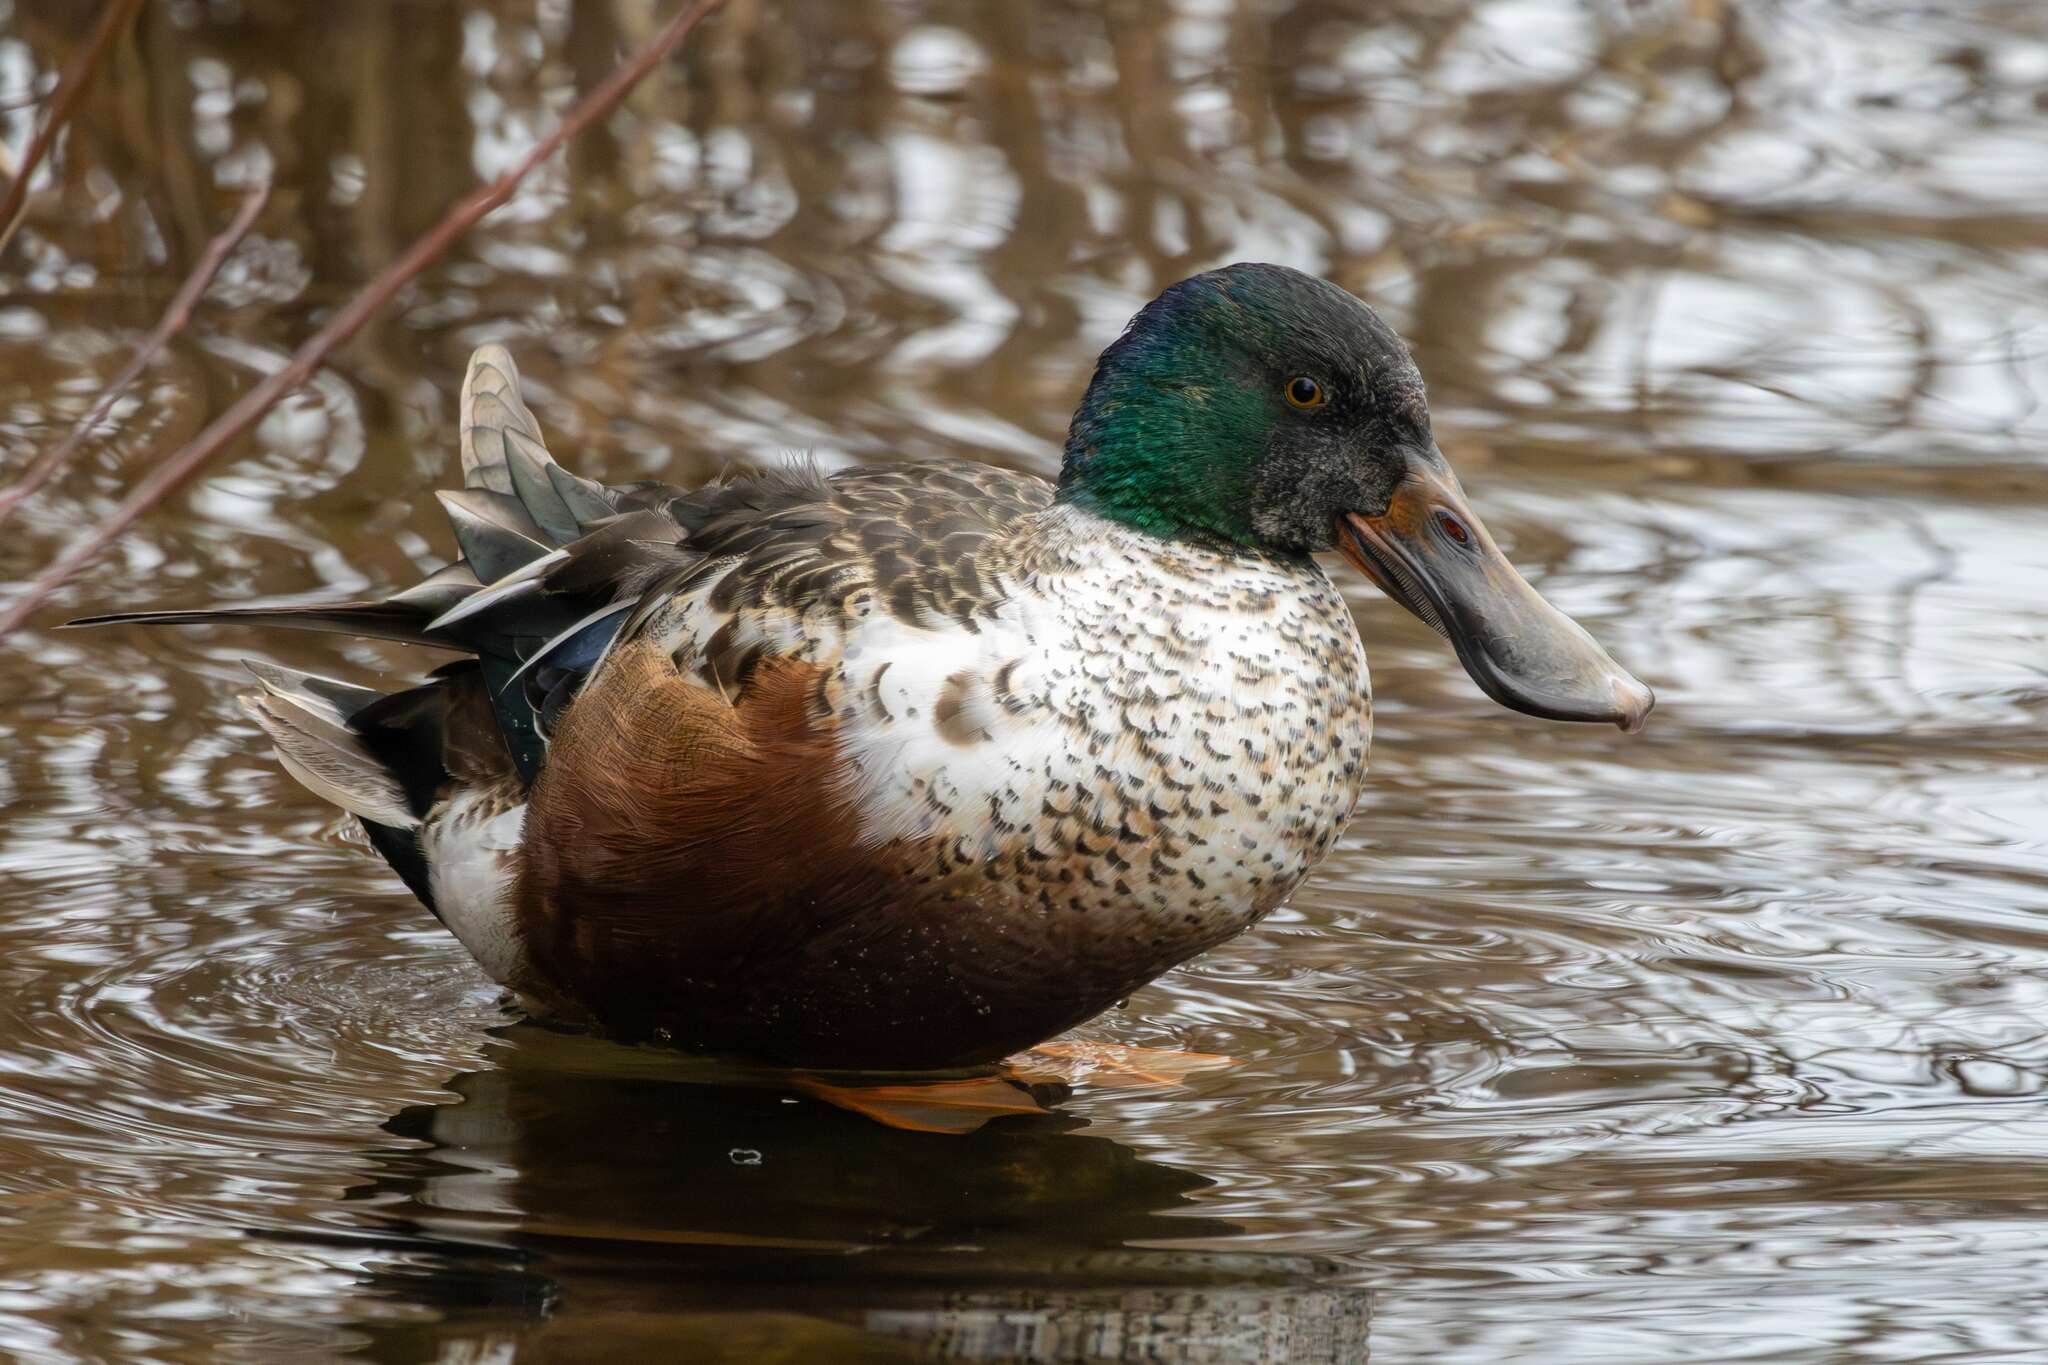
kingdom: Animalia
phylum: Chordata
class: Aves
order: Anseriformes
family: Anatidae
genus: Spatula
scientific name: Spatula clypeata
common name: Northern shoveler
